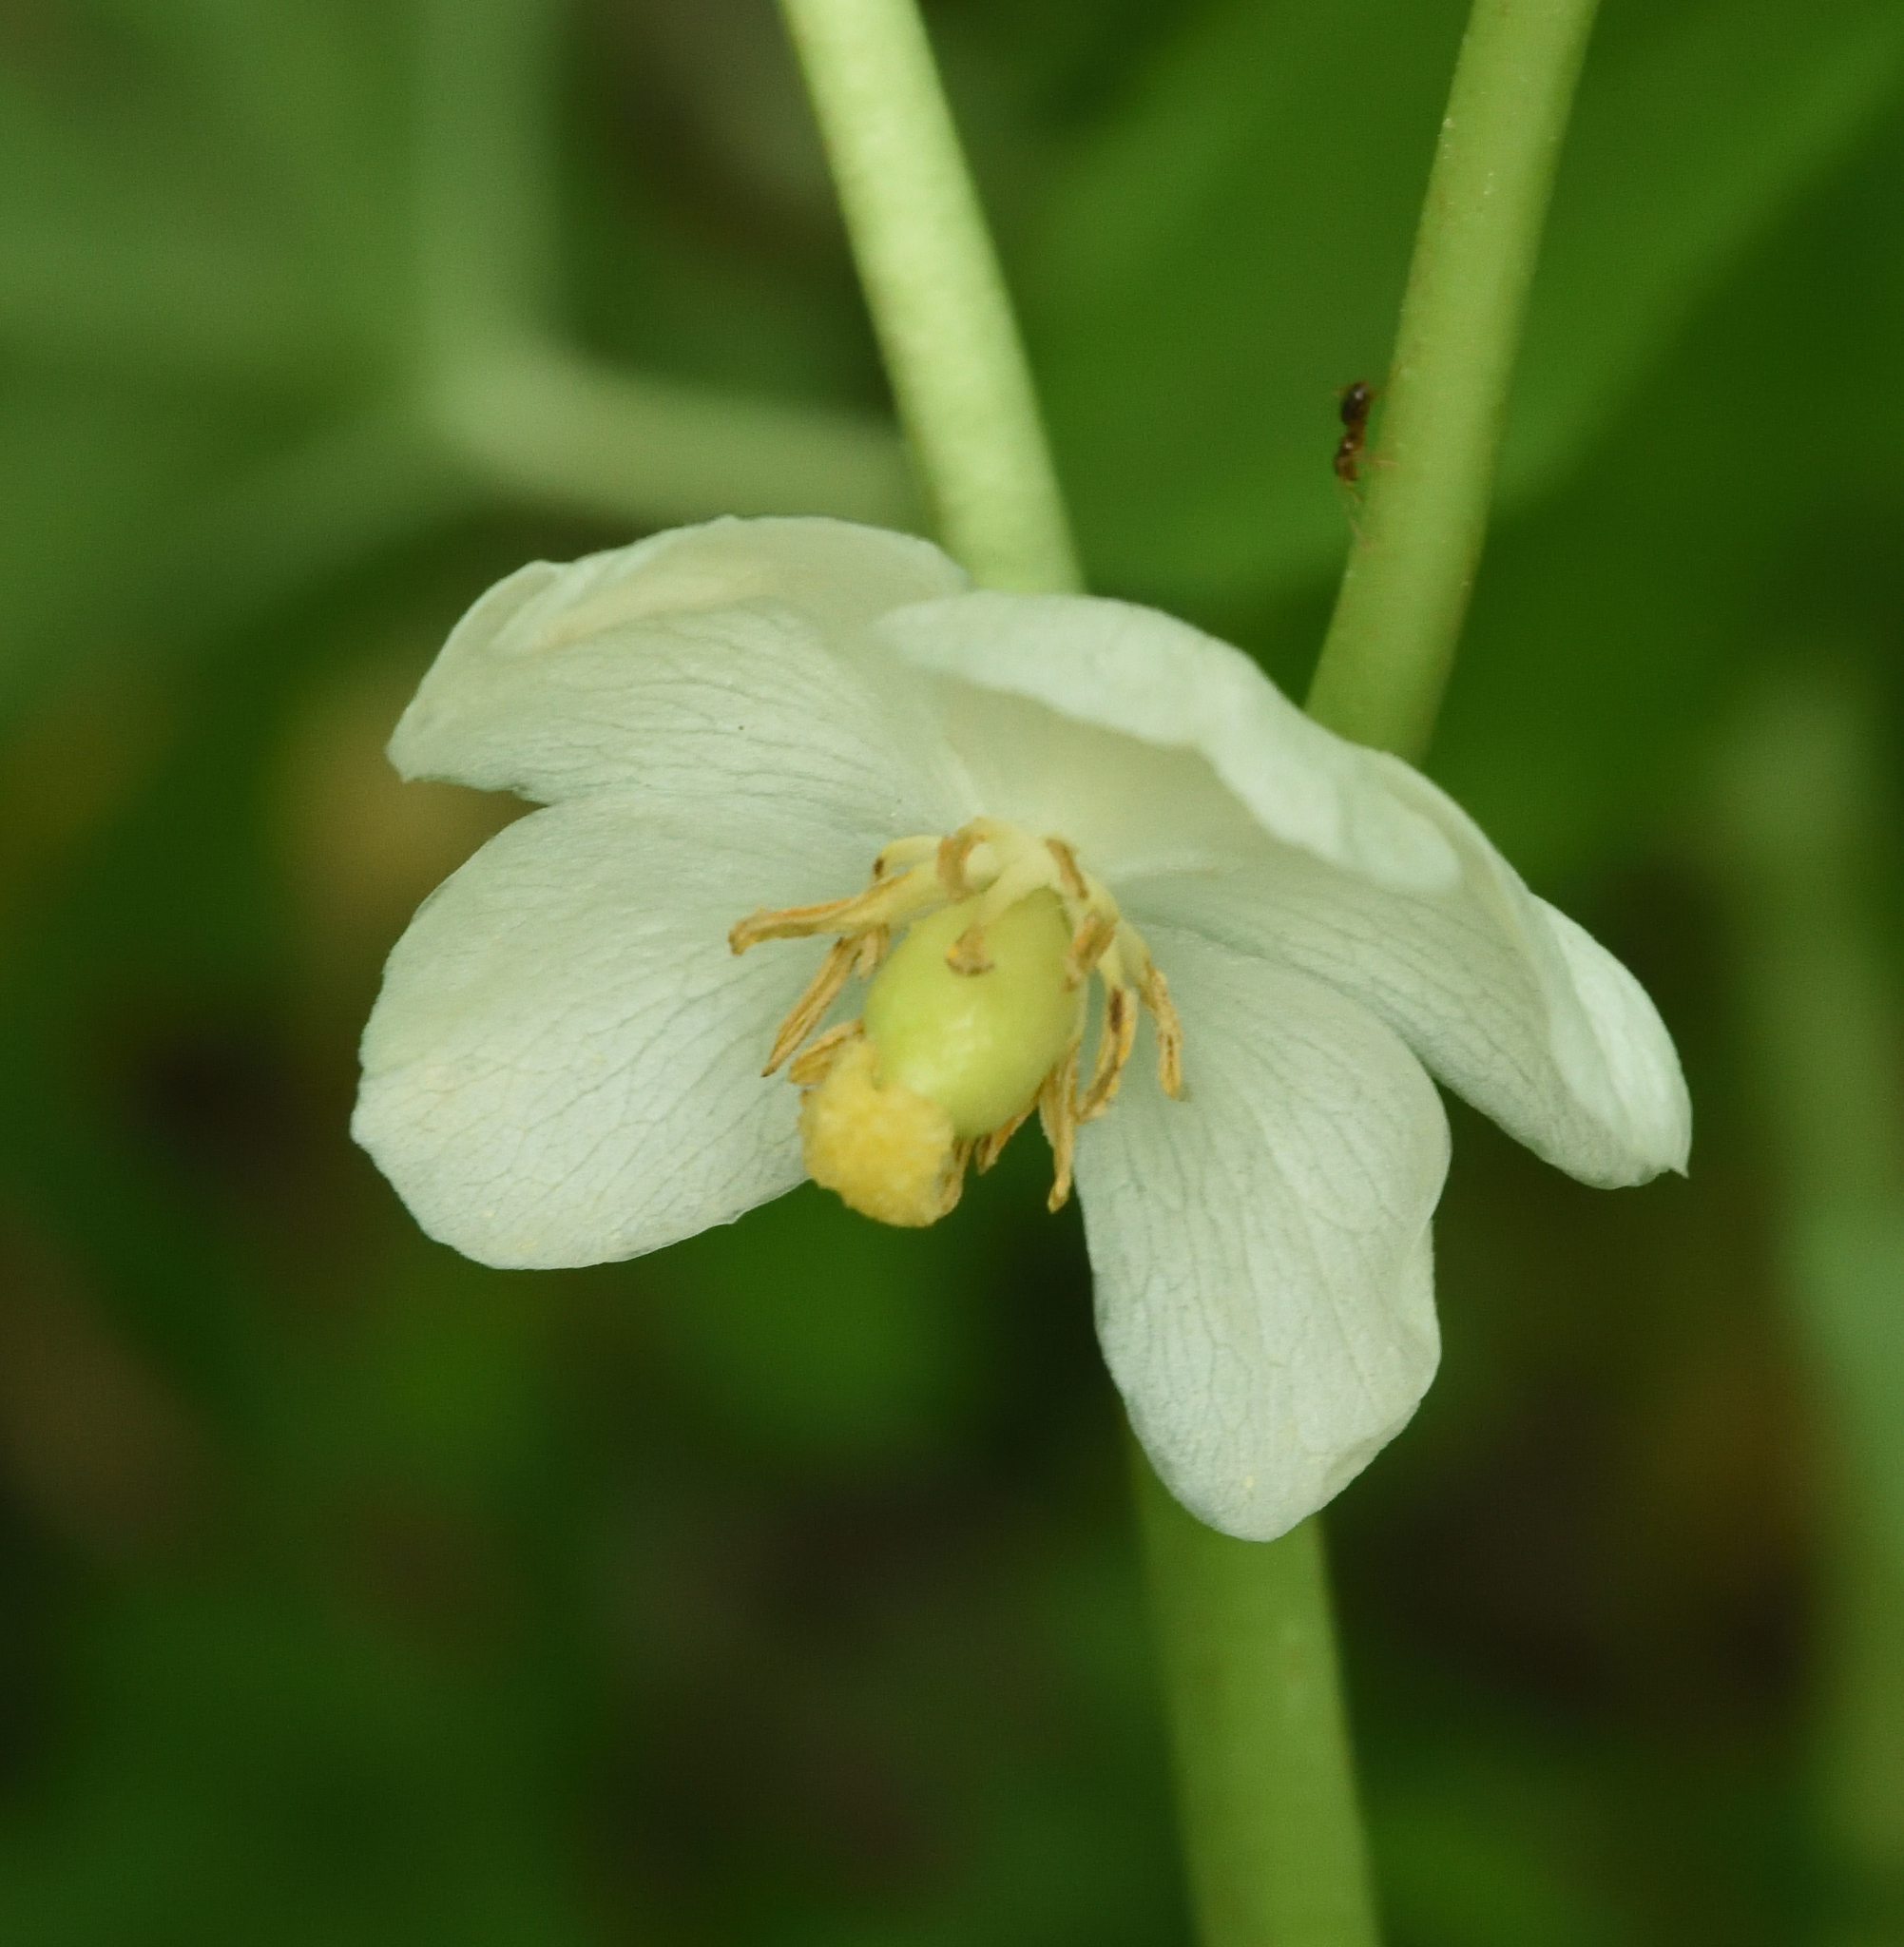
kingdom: Plantae
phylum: Tracheophyta
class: Magnoliopsida
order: Ranunculales
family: Berberidaceae
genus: Podophyllum
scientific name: Podophyllum peltatum
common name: Wild mandrake
